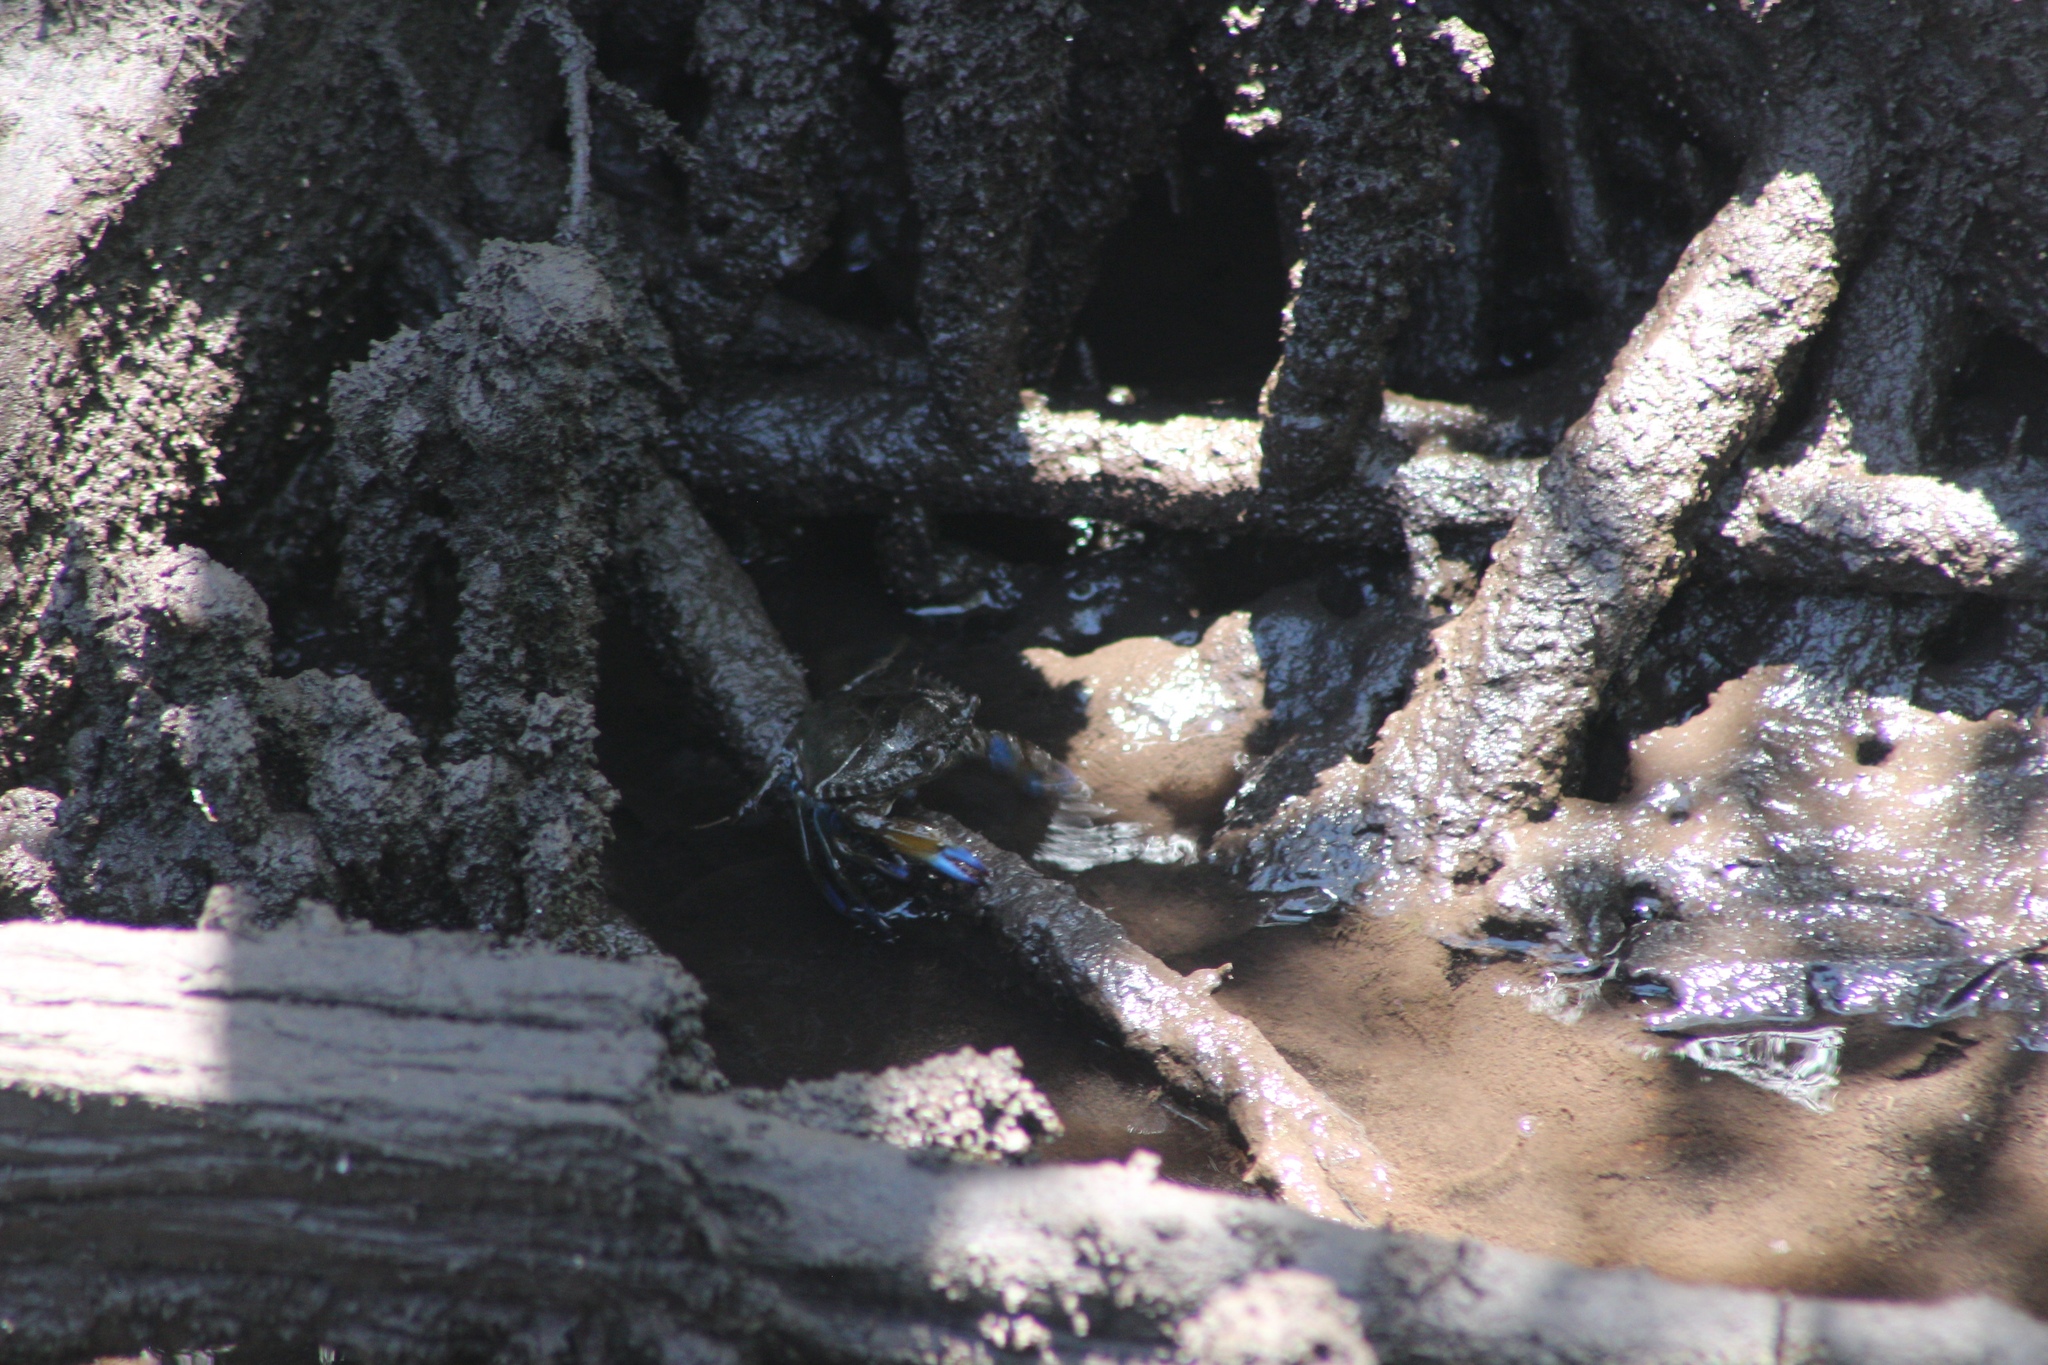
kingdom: Animalia
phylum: Arthropoda
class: Malacostraca
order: Decapoda
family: Portunidae
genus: Callinectes
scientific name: Callinectes sapidus
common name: Blue crab
